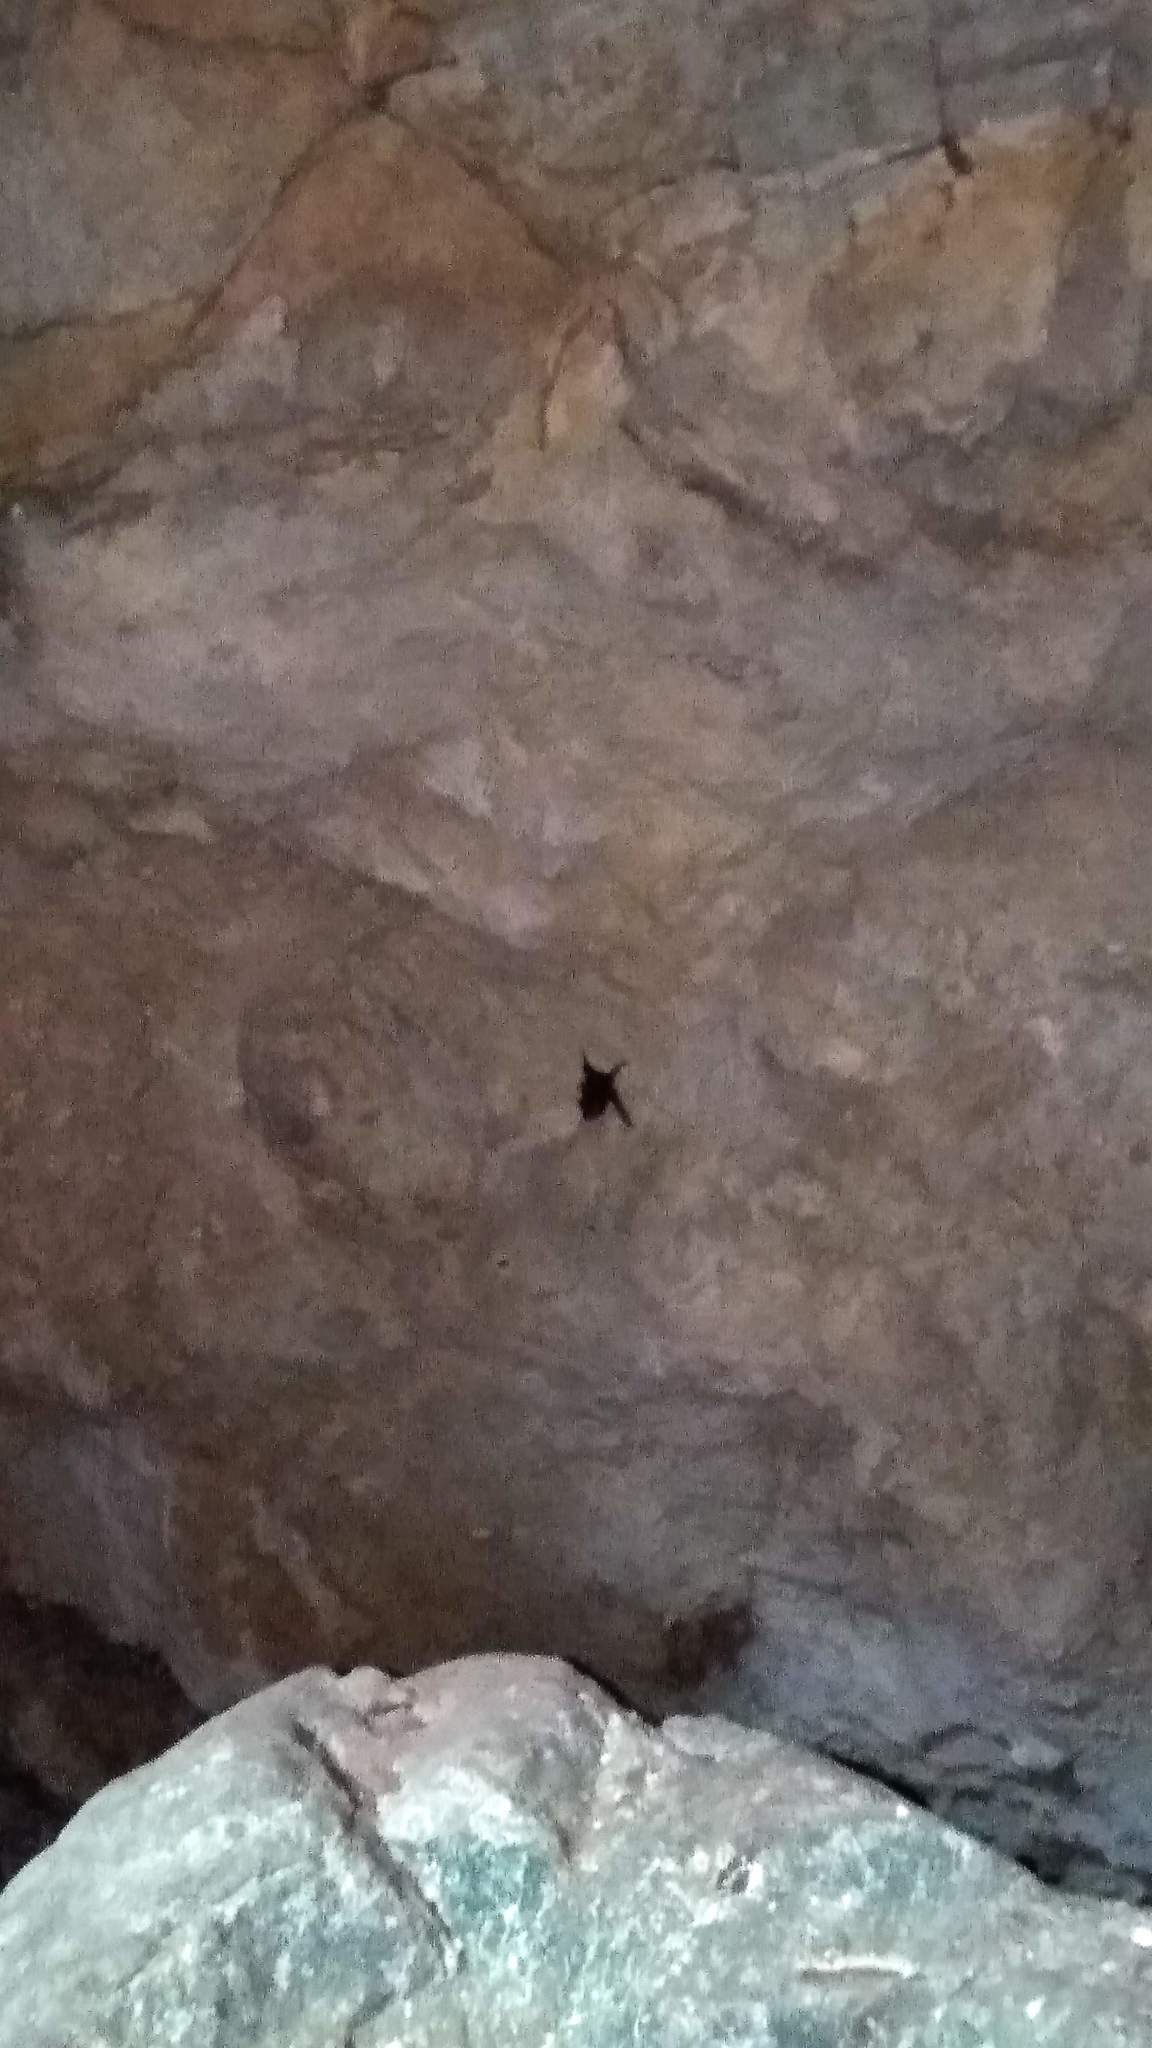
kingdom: Animalia
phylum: Chordata
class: Mammalia
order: Chiroptera
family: Emballonuridae
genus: Peropteryx
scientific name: Peropteryx macrotis
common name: Lesser dog-like bat
